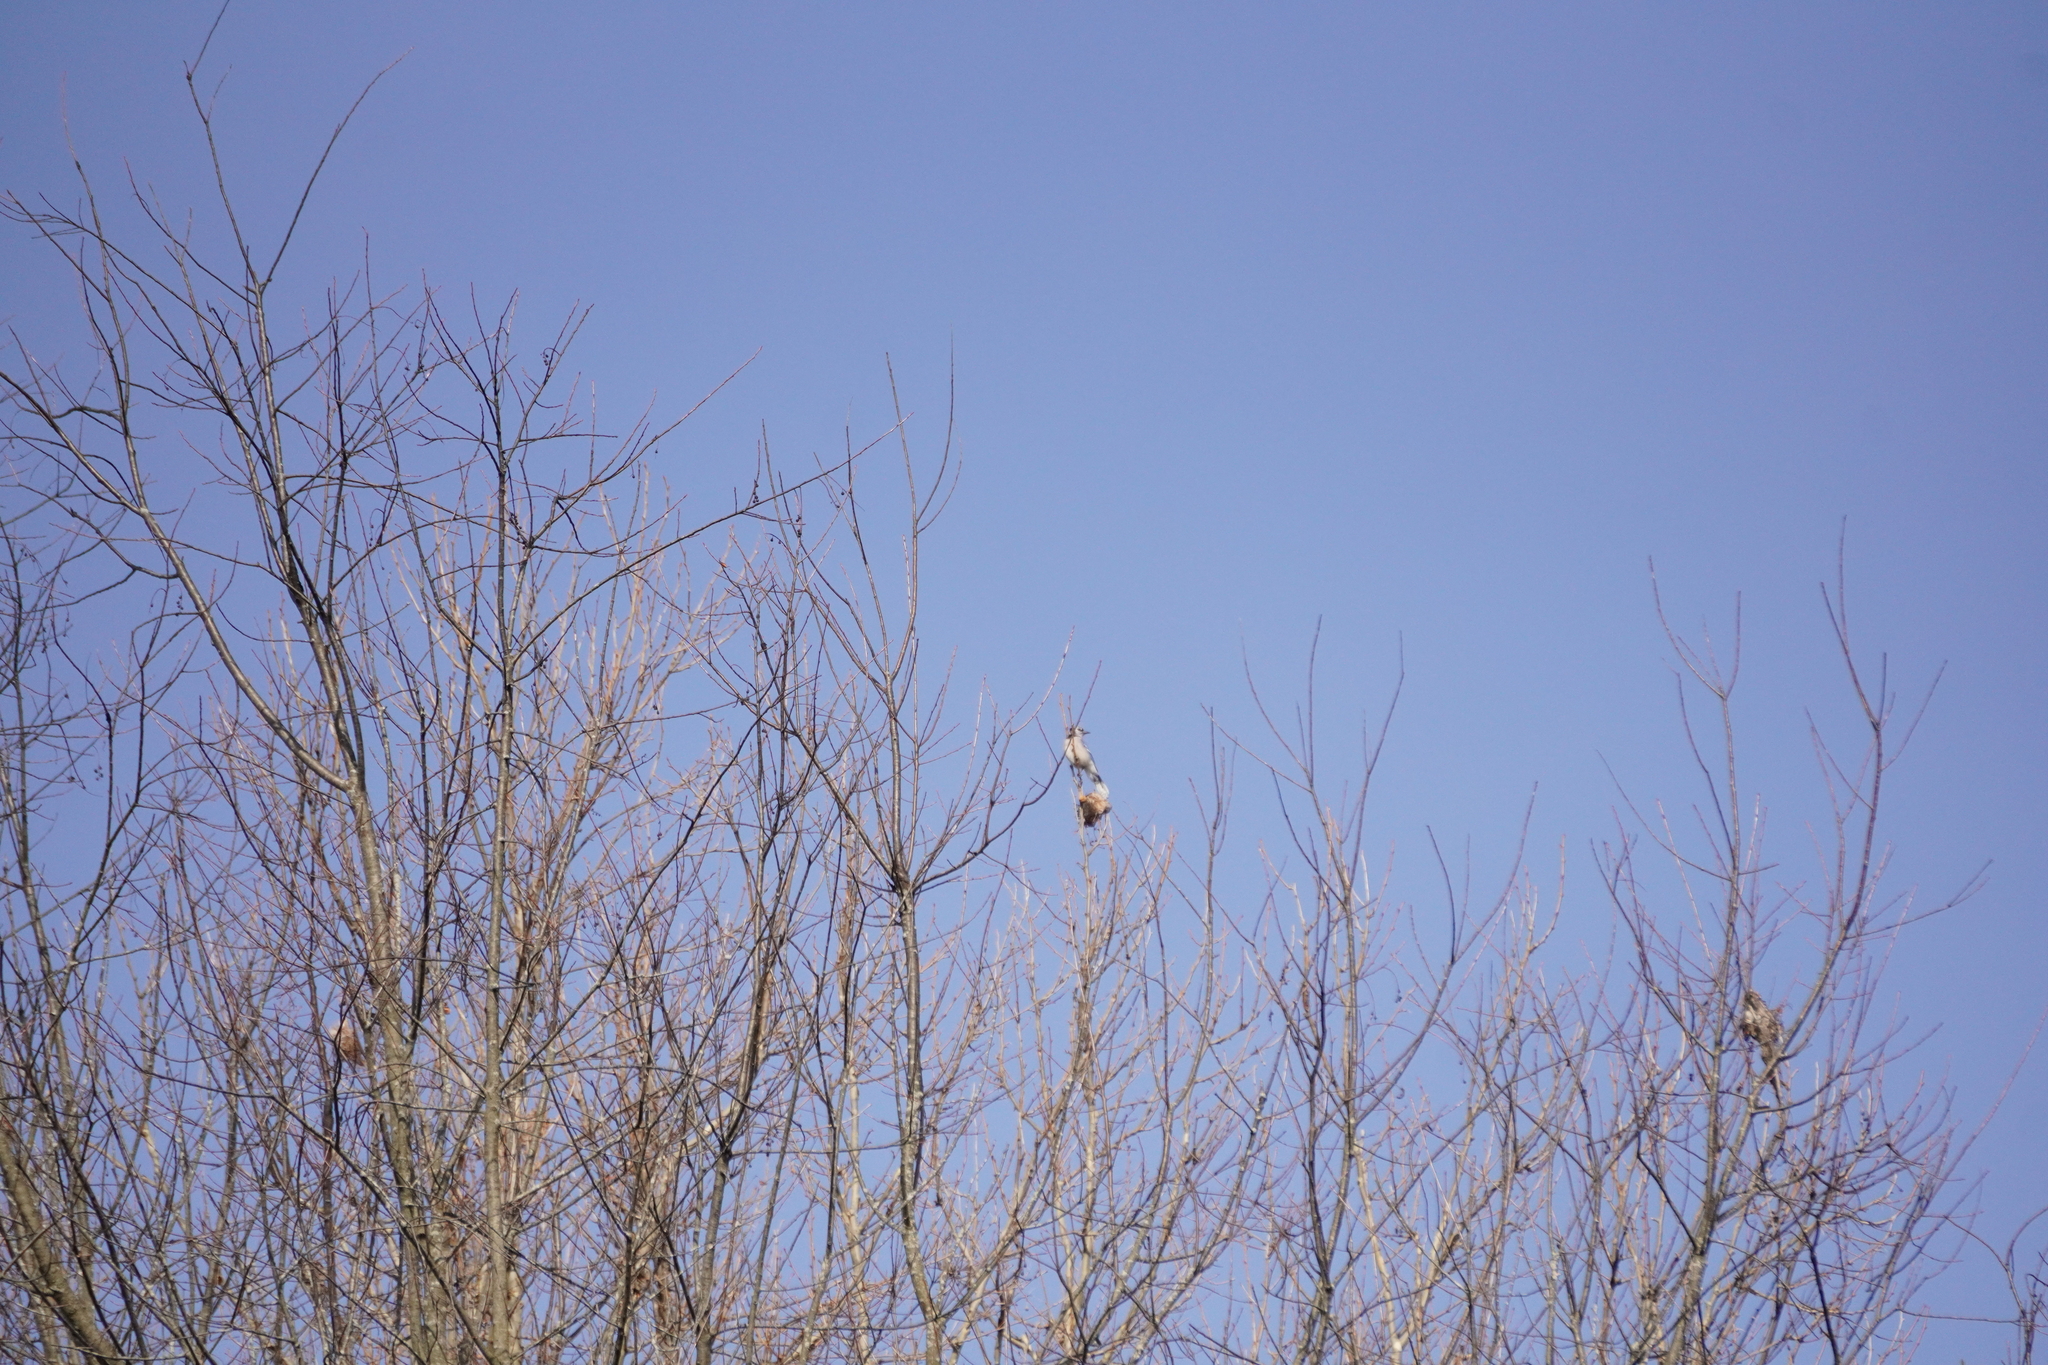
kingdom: Animalia
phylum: Chordata
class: Aves
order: Passeriformes
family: Corvidae
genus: Cyanocitta
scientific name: Cyanocitta cristata
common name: Blue jay
